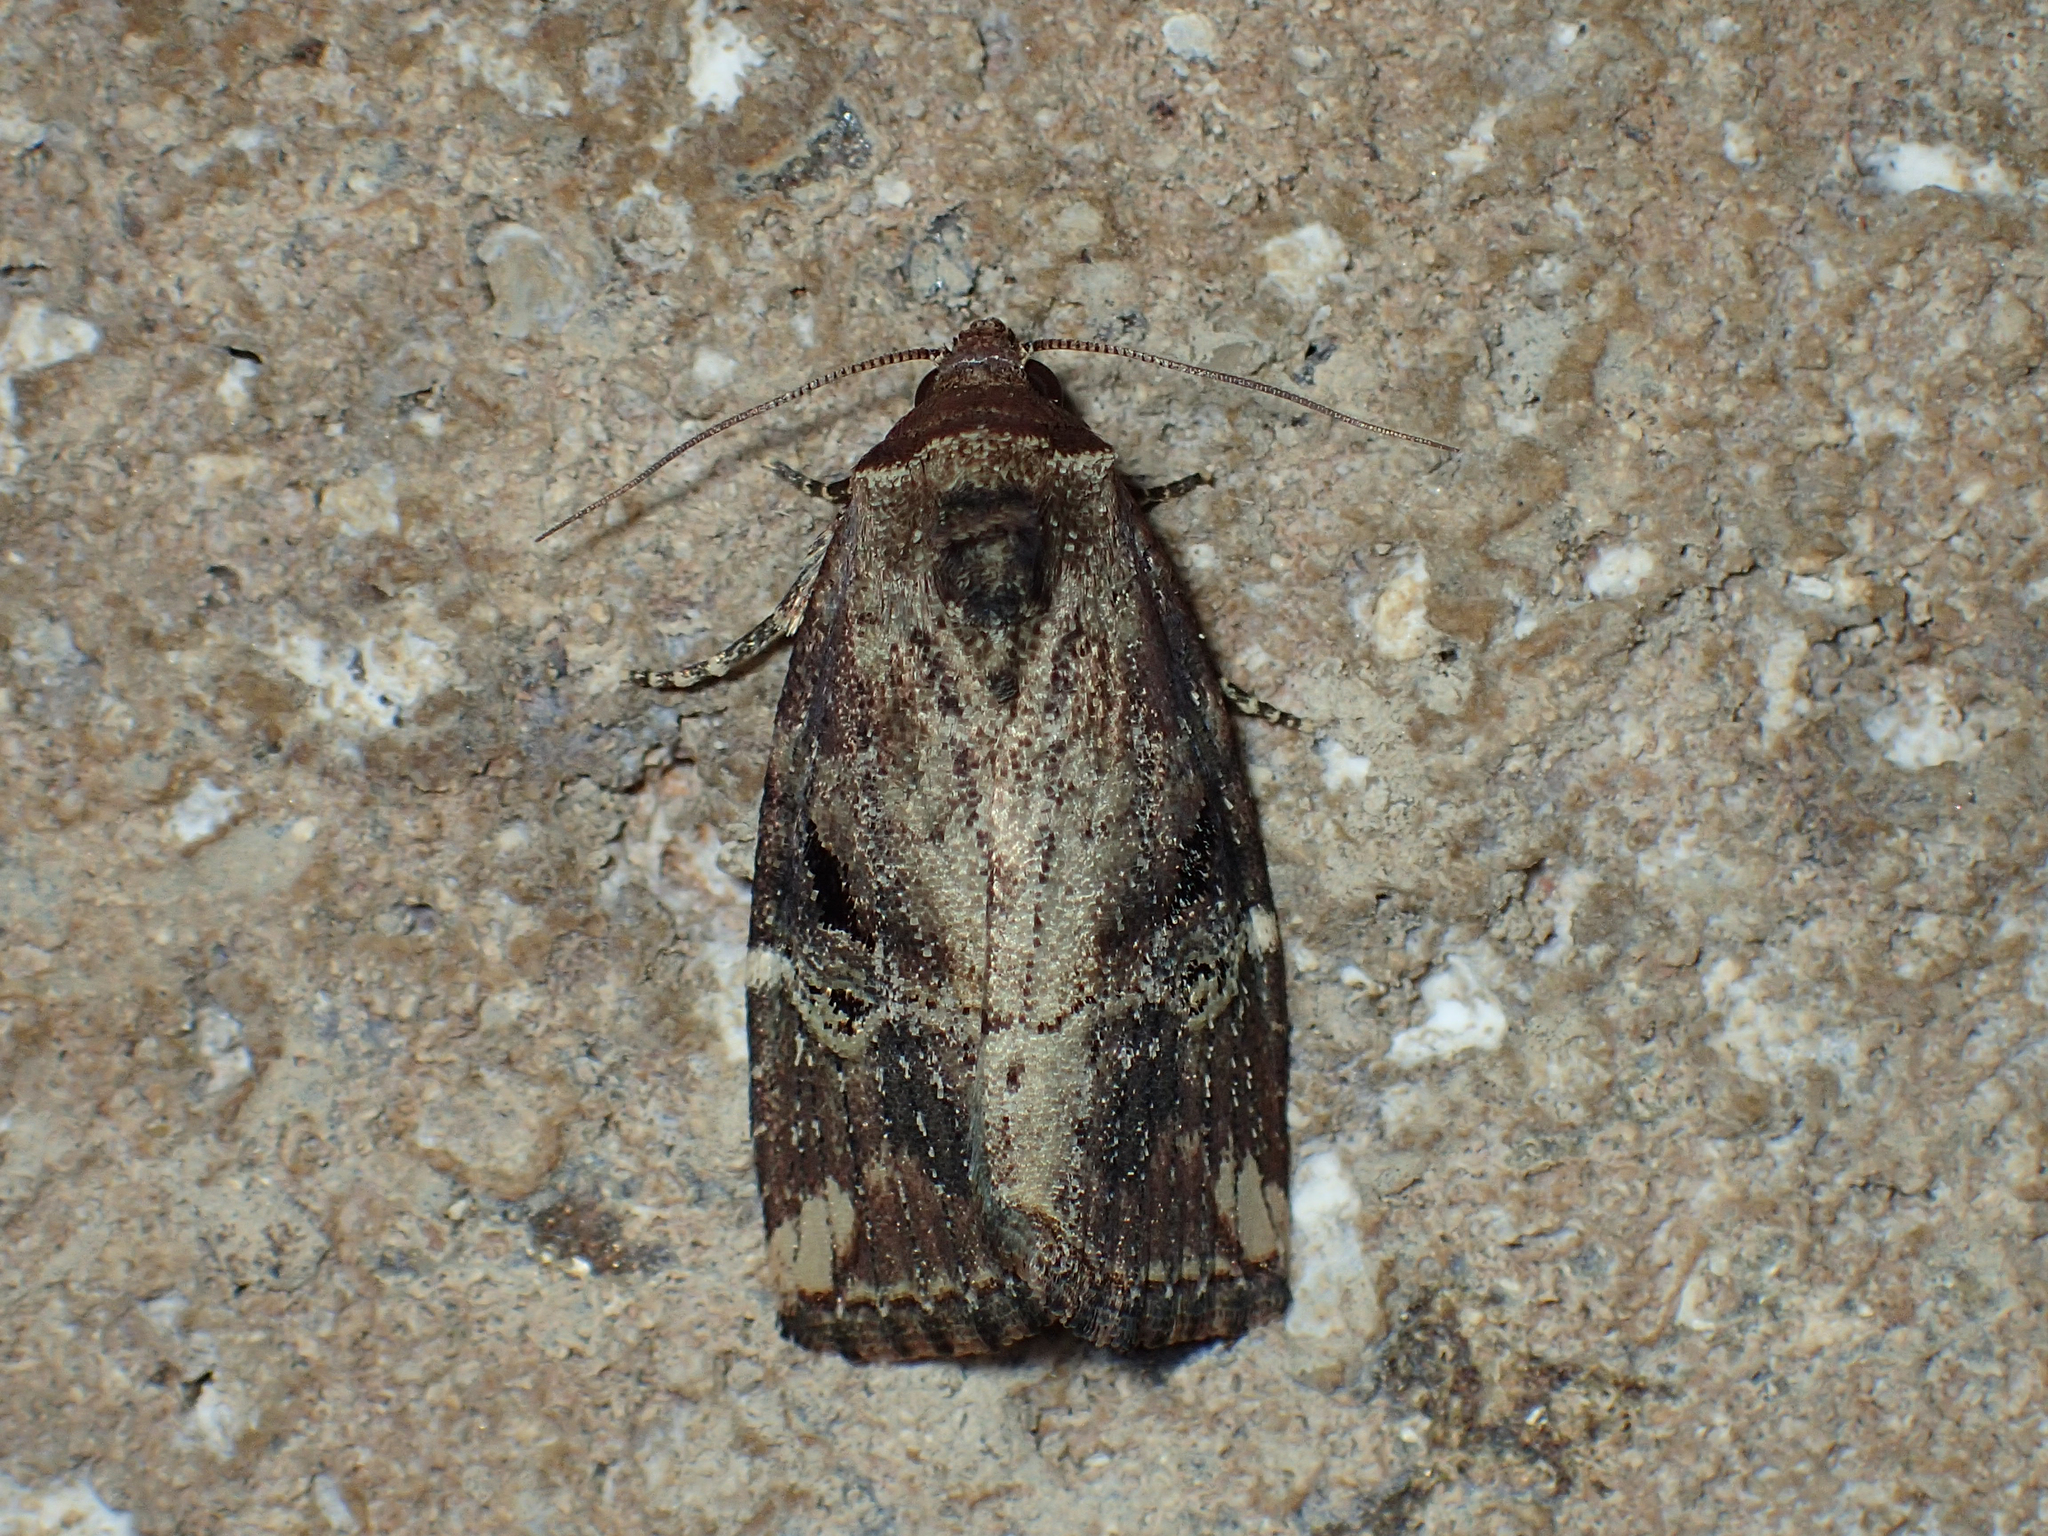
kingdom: Animalia
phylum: Arthropoda
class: Insecta
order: Lepidoptera
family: Noctuidae
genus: Elaphria
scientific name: Elaphria versicolor
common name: Fir harlequin
